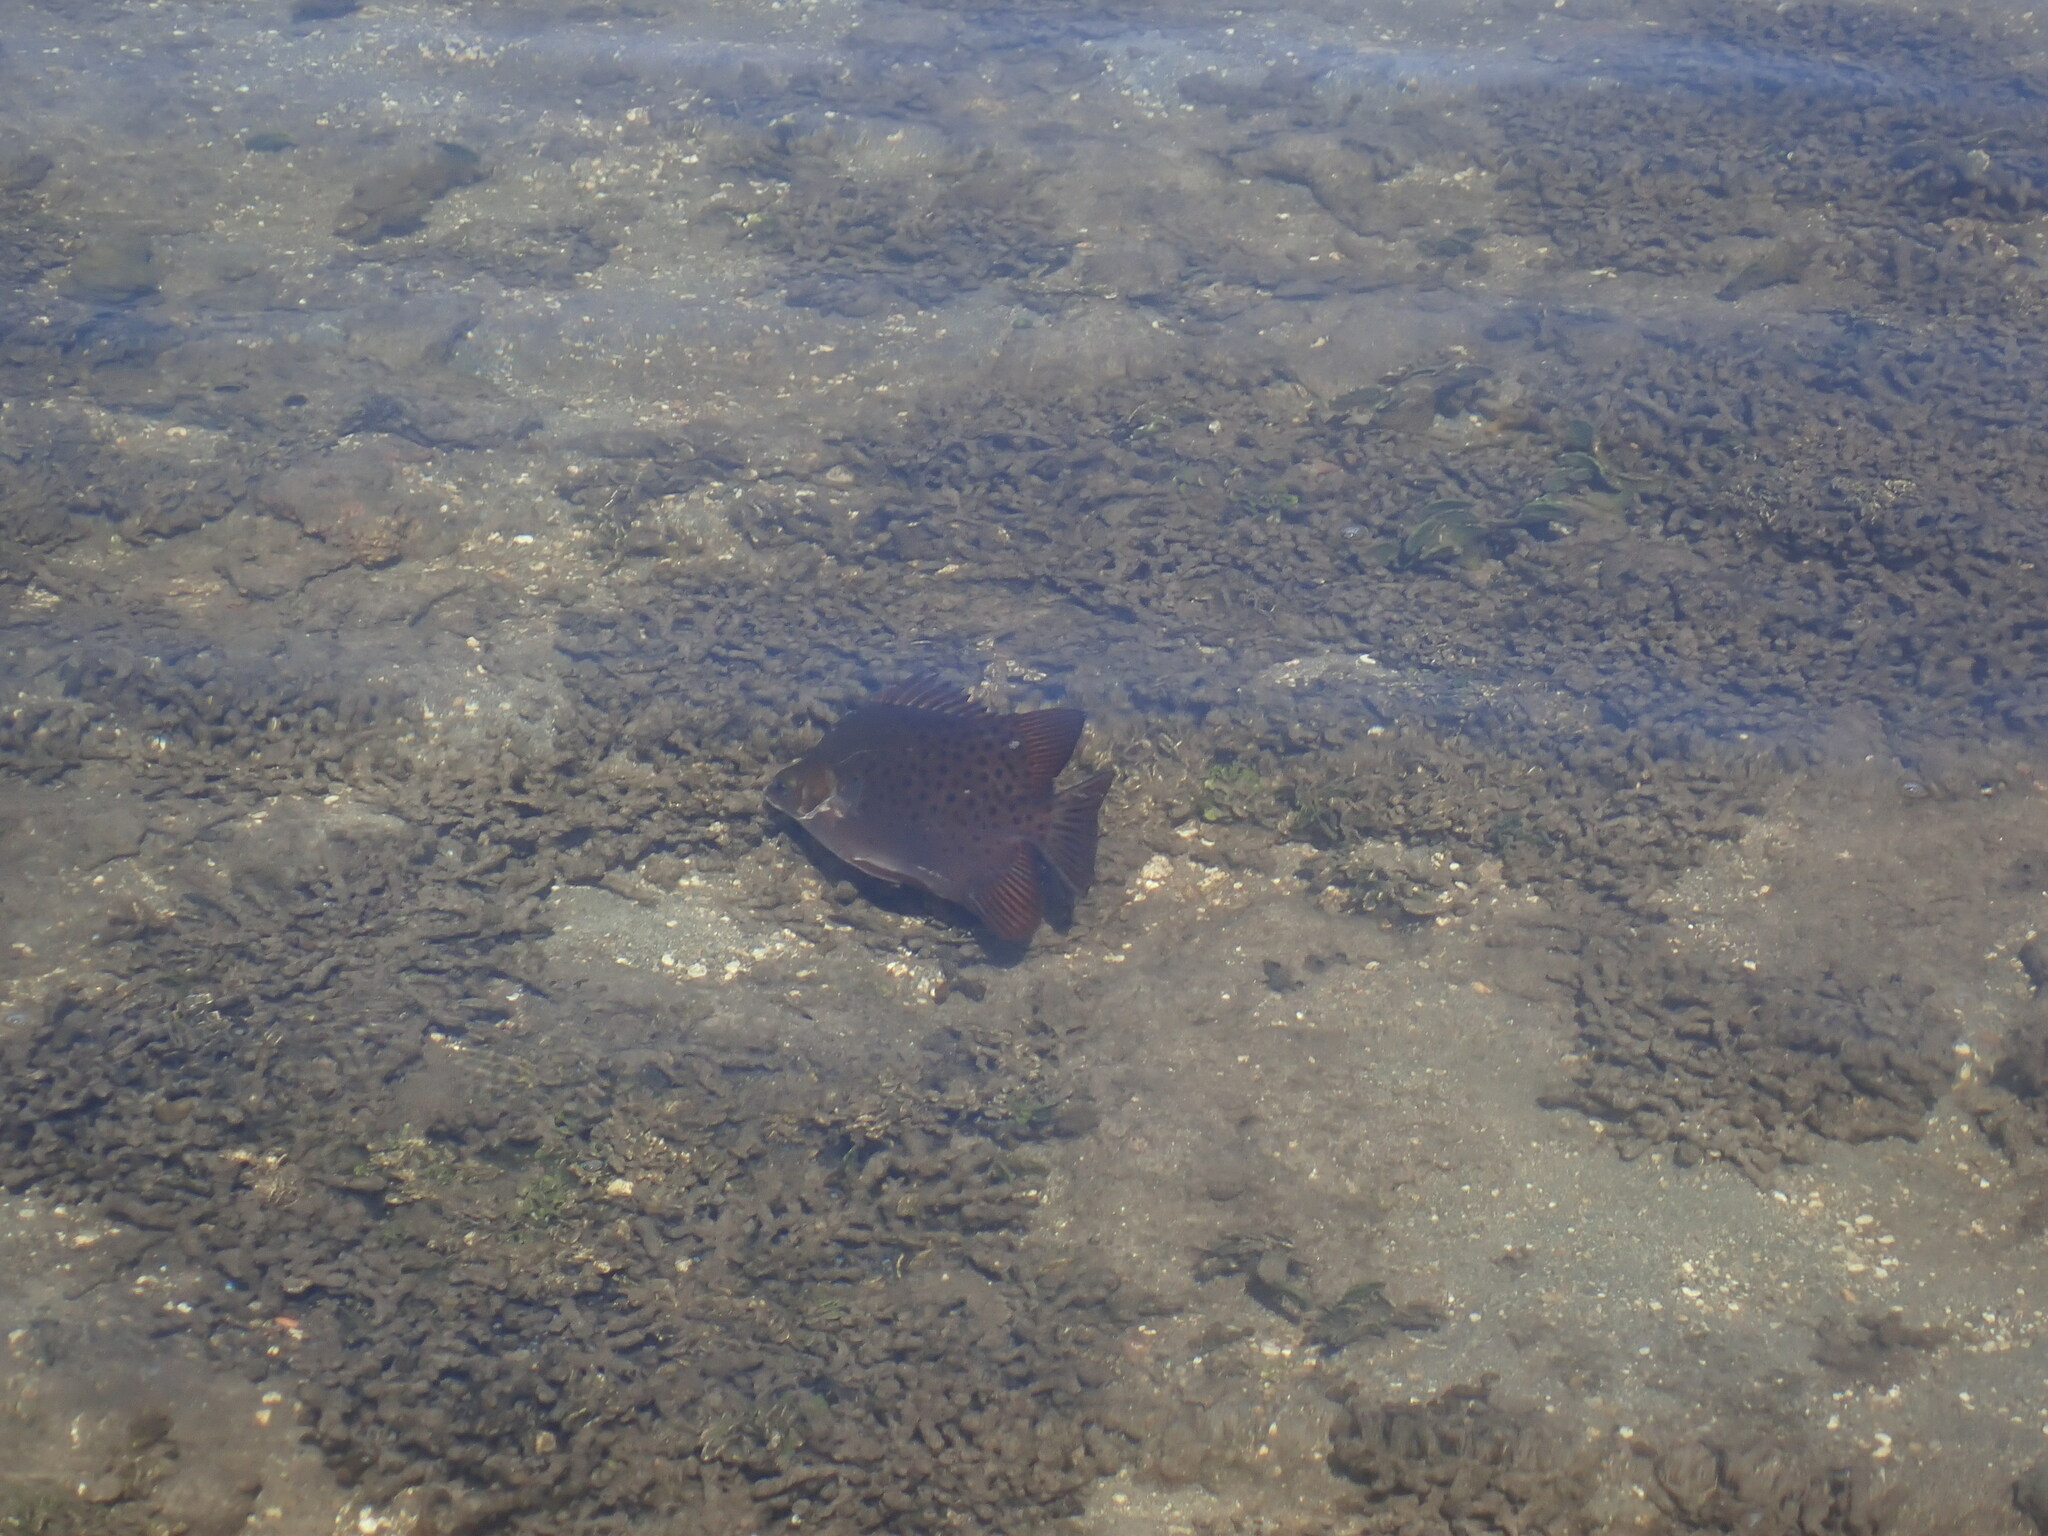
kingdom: Animalia
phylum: Chordata
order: Perciformes
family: Scatophagidae
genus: Scatophagus
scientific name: Scatophagus argus
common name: Spotted scat
